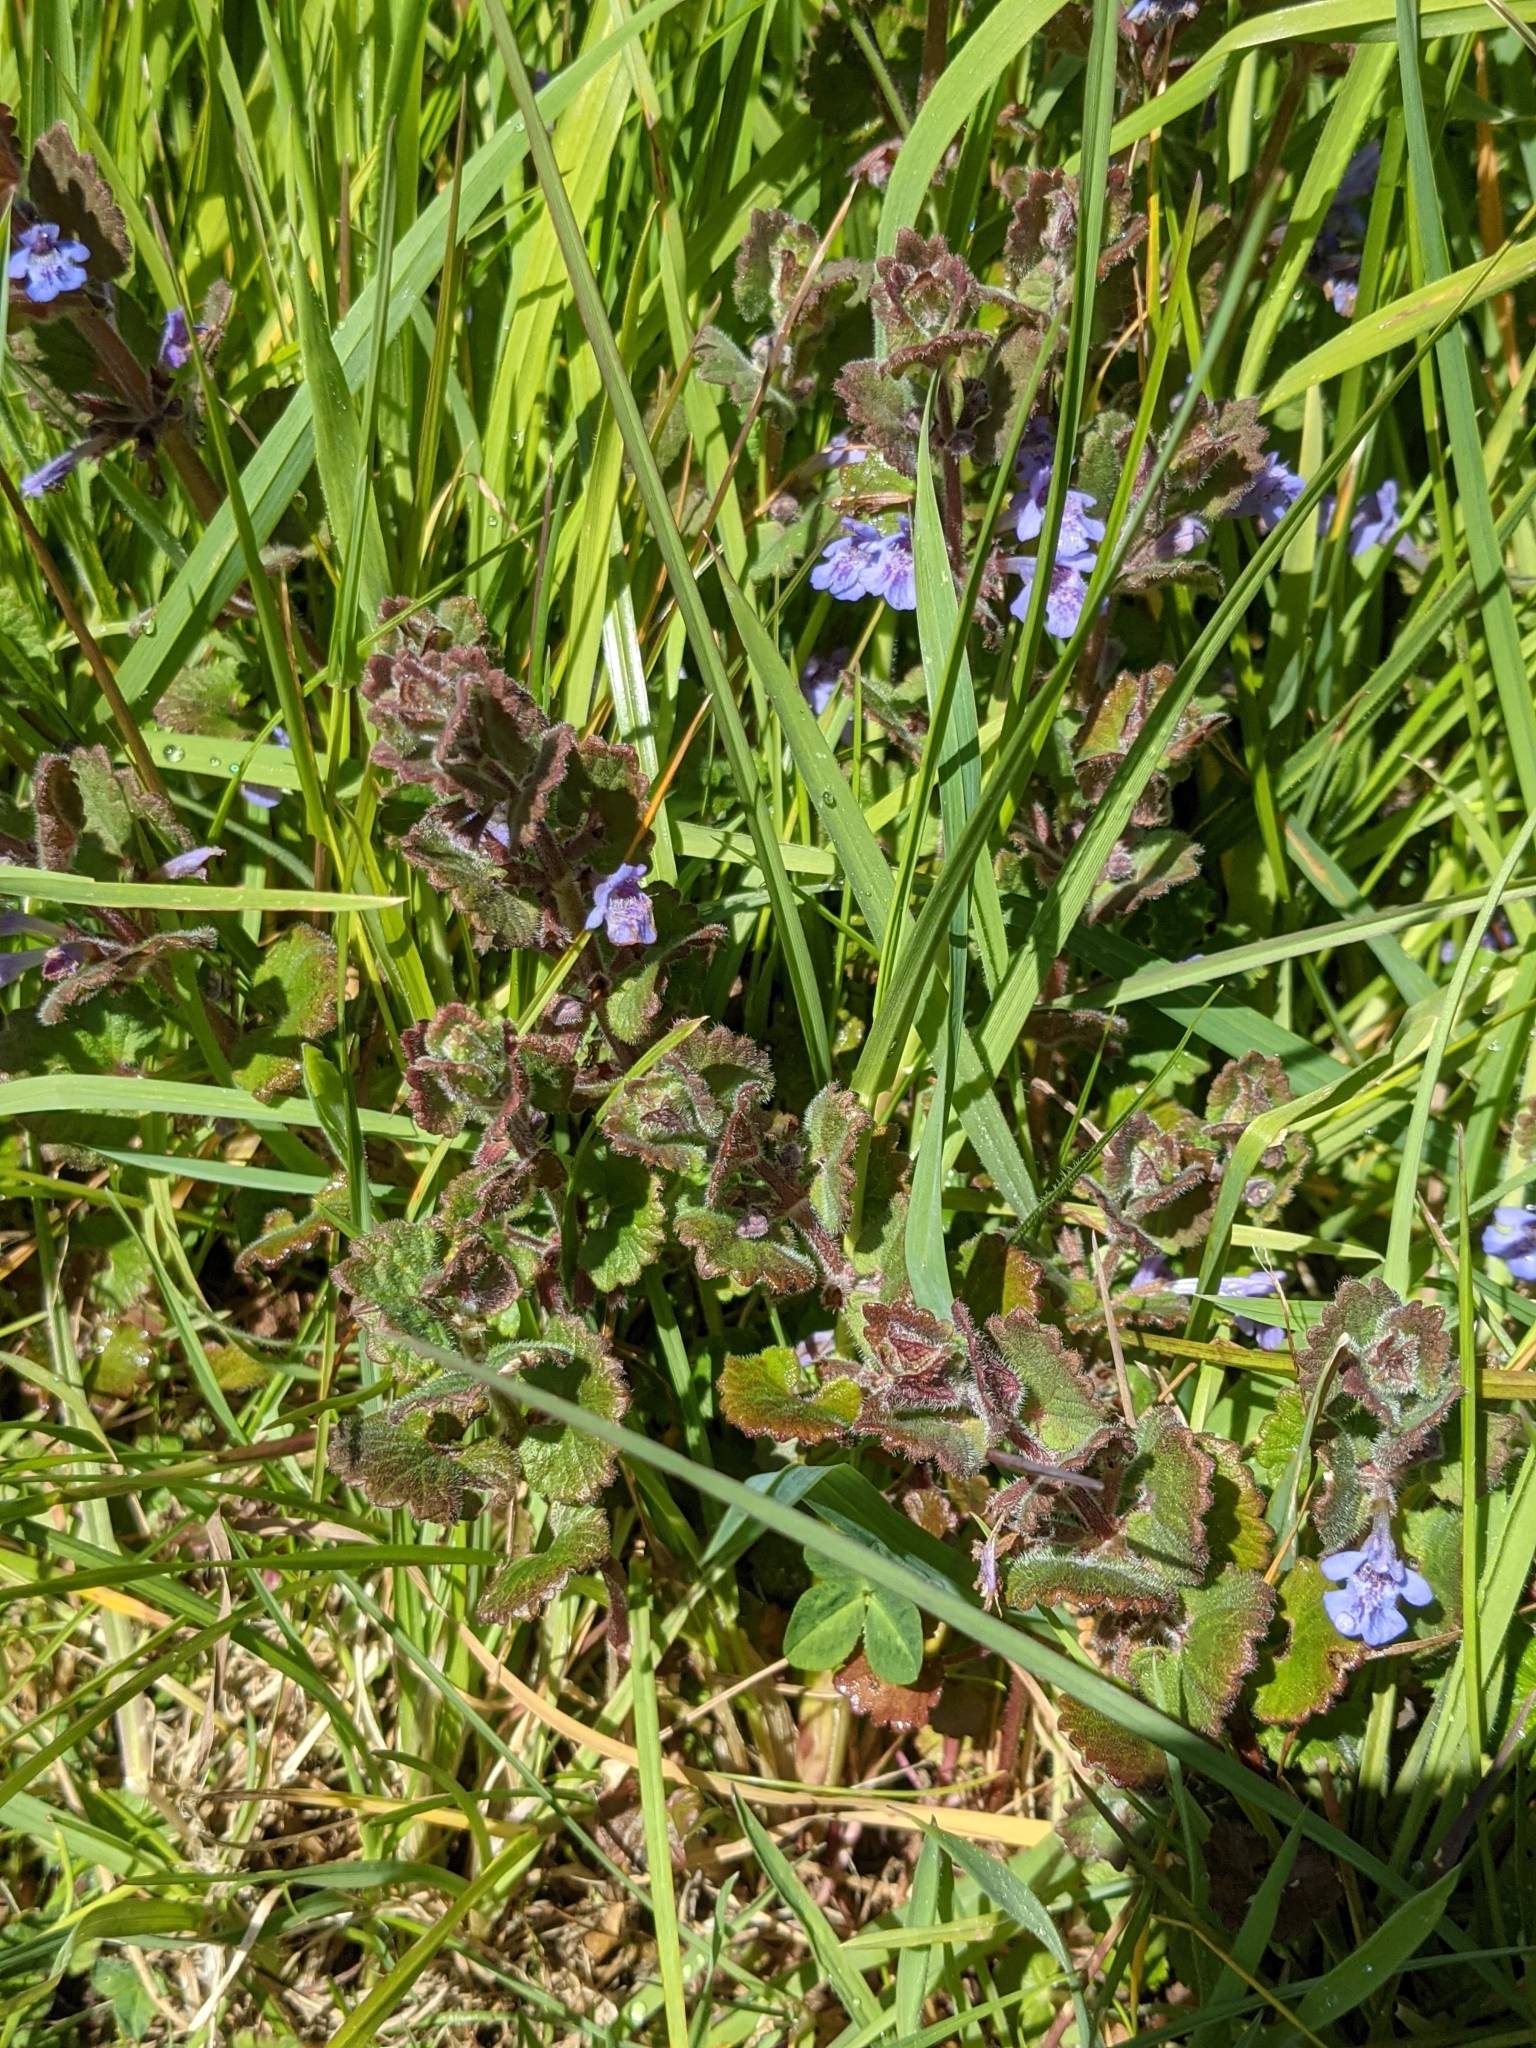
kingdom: Plantae
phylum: Tracheophyta
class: Magnoliopsida
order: Lamiales
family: Lamiaceae
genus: Glechoma
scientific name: Glechoma hederacea
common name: Ground ivy
